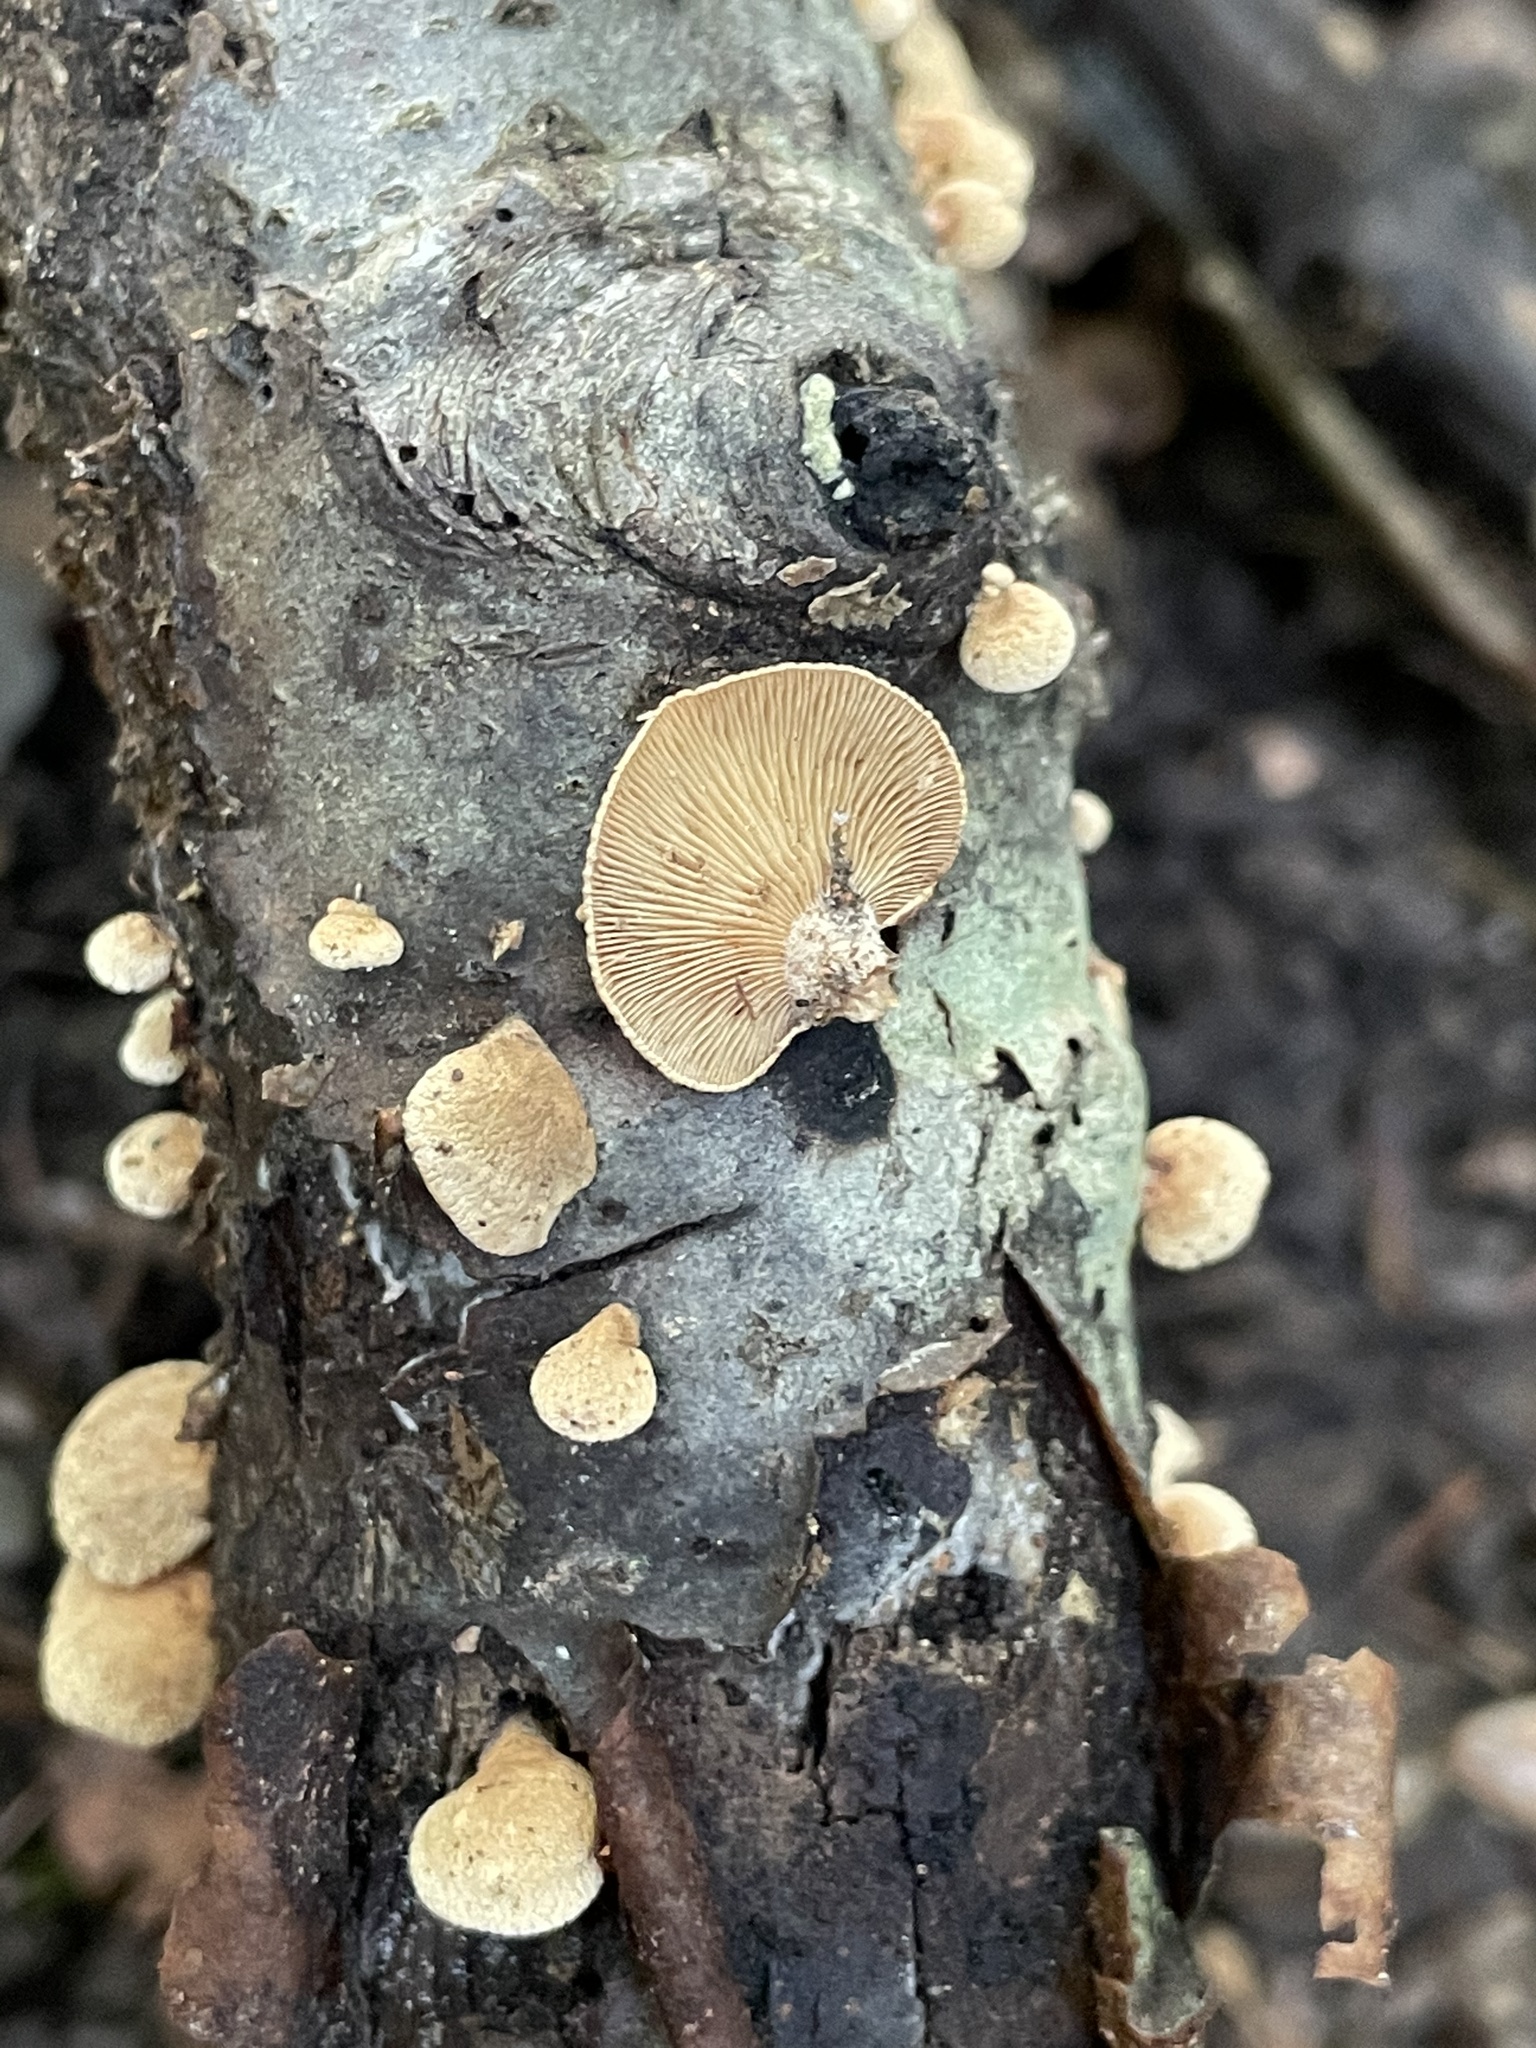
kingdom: Fungi
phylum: Basidiomycota
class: Agaricomycetes
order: Agaricales
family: Mycenaceae
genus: Panellus
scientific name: Panellus stipticus
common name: Bitter oysterling
